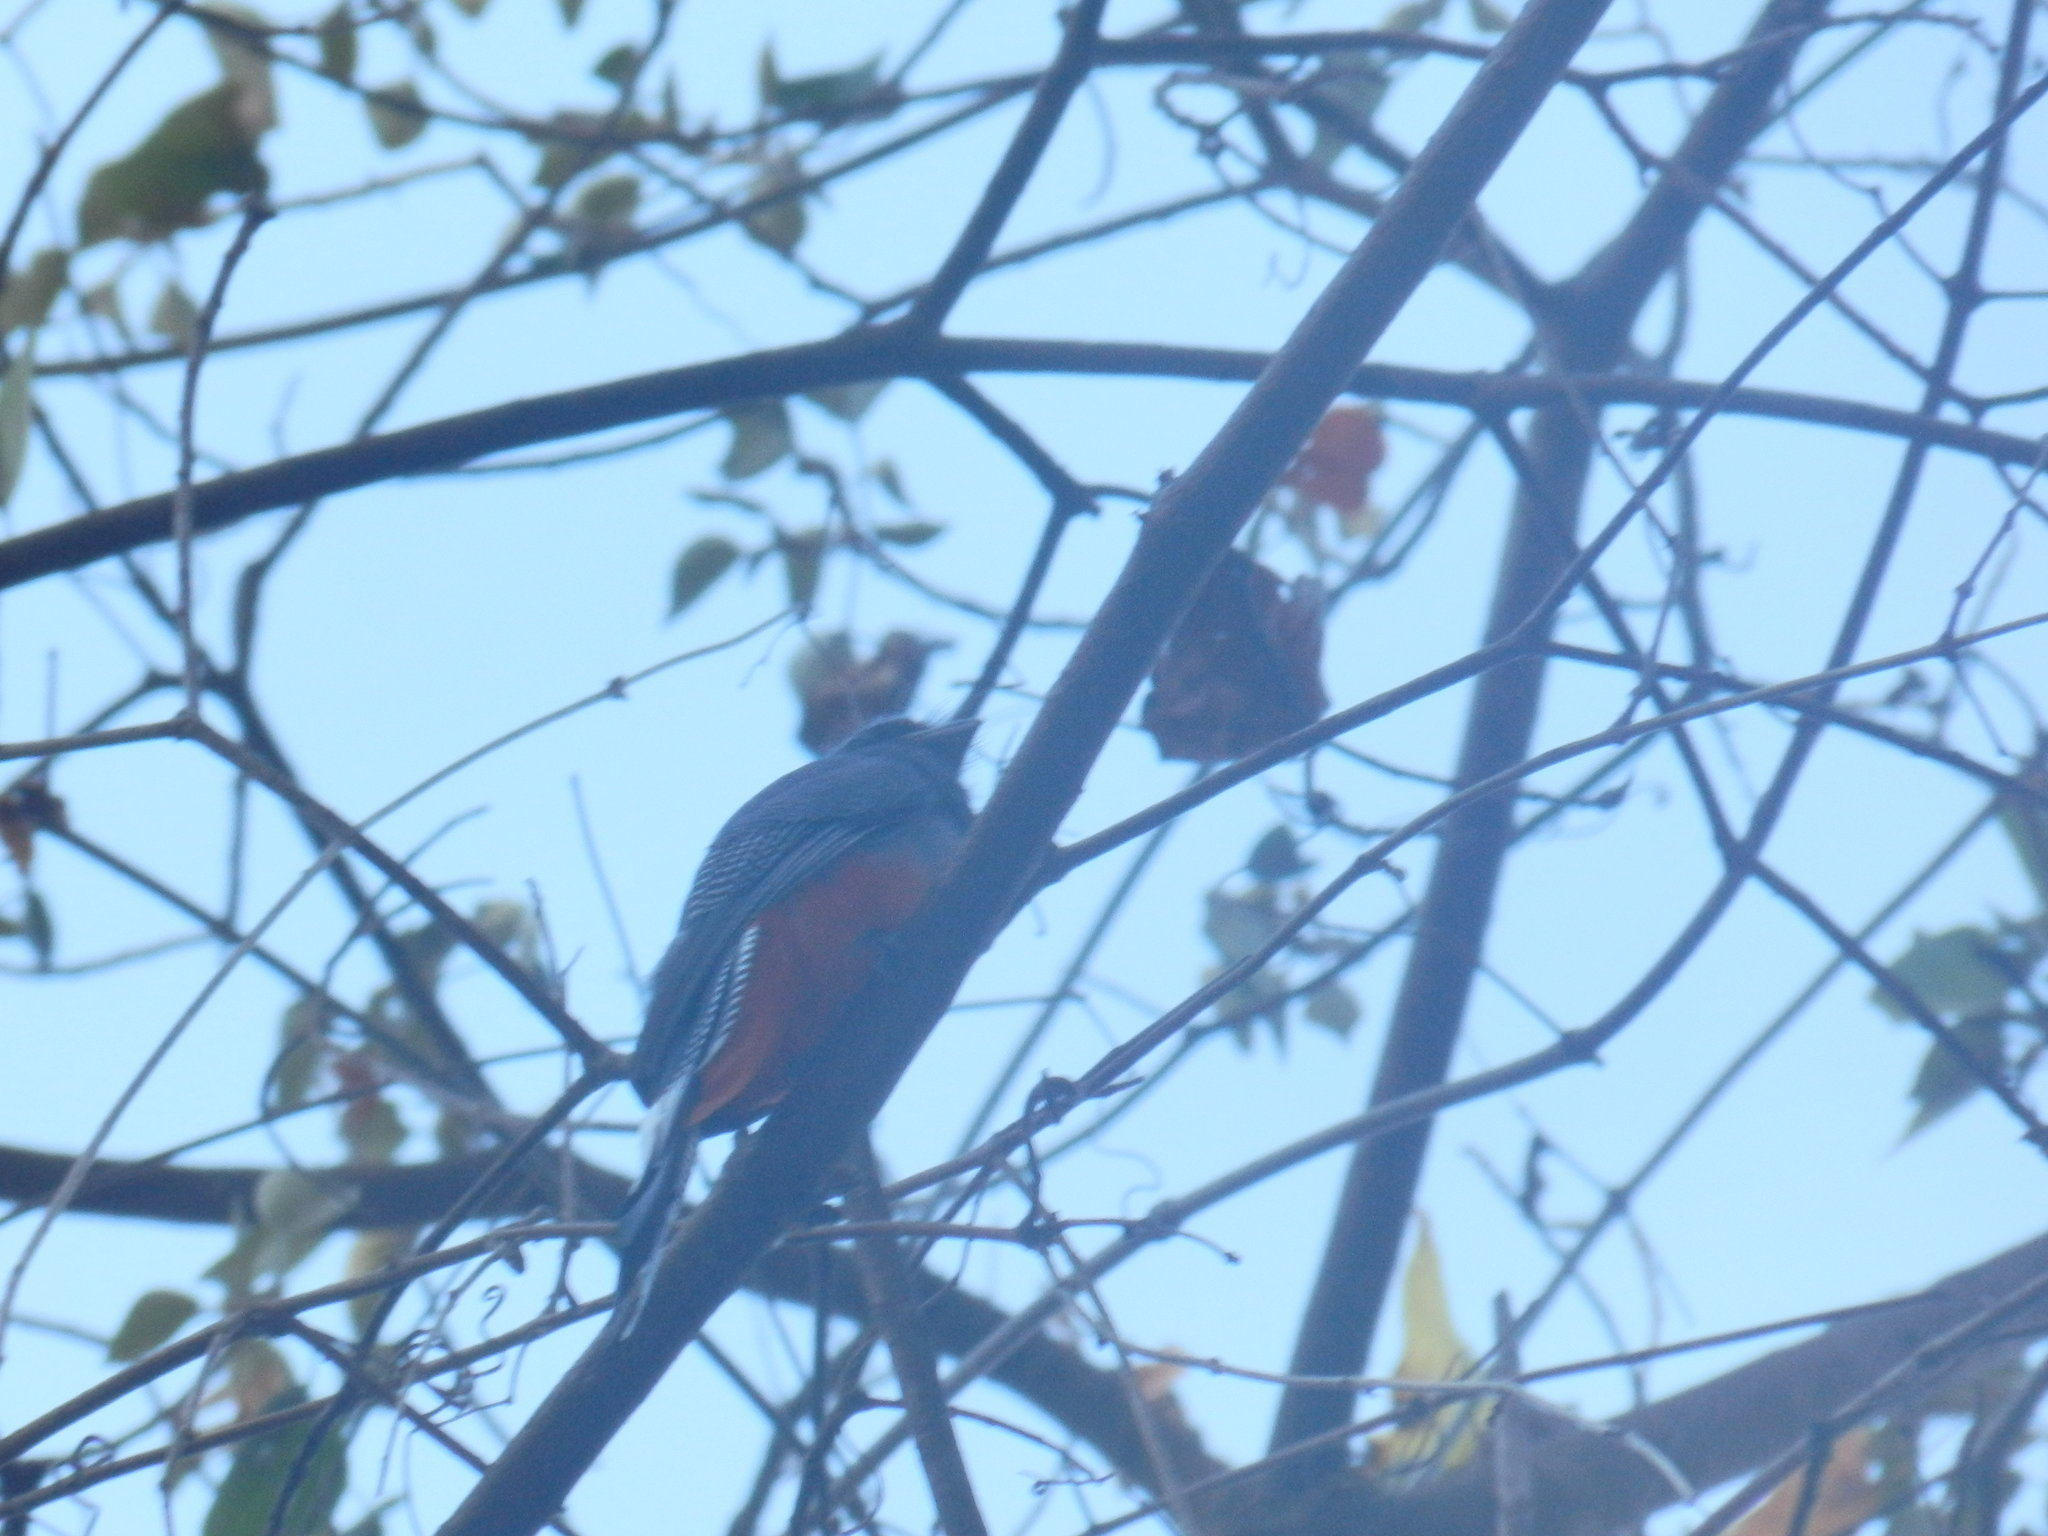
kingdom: Animalia
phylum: Chordata
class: Aves
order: Trogoniformes
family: Trogonidae
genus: Trogon
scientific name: Trogon curucui
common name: Blue-crowned trogon
